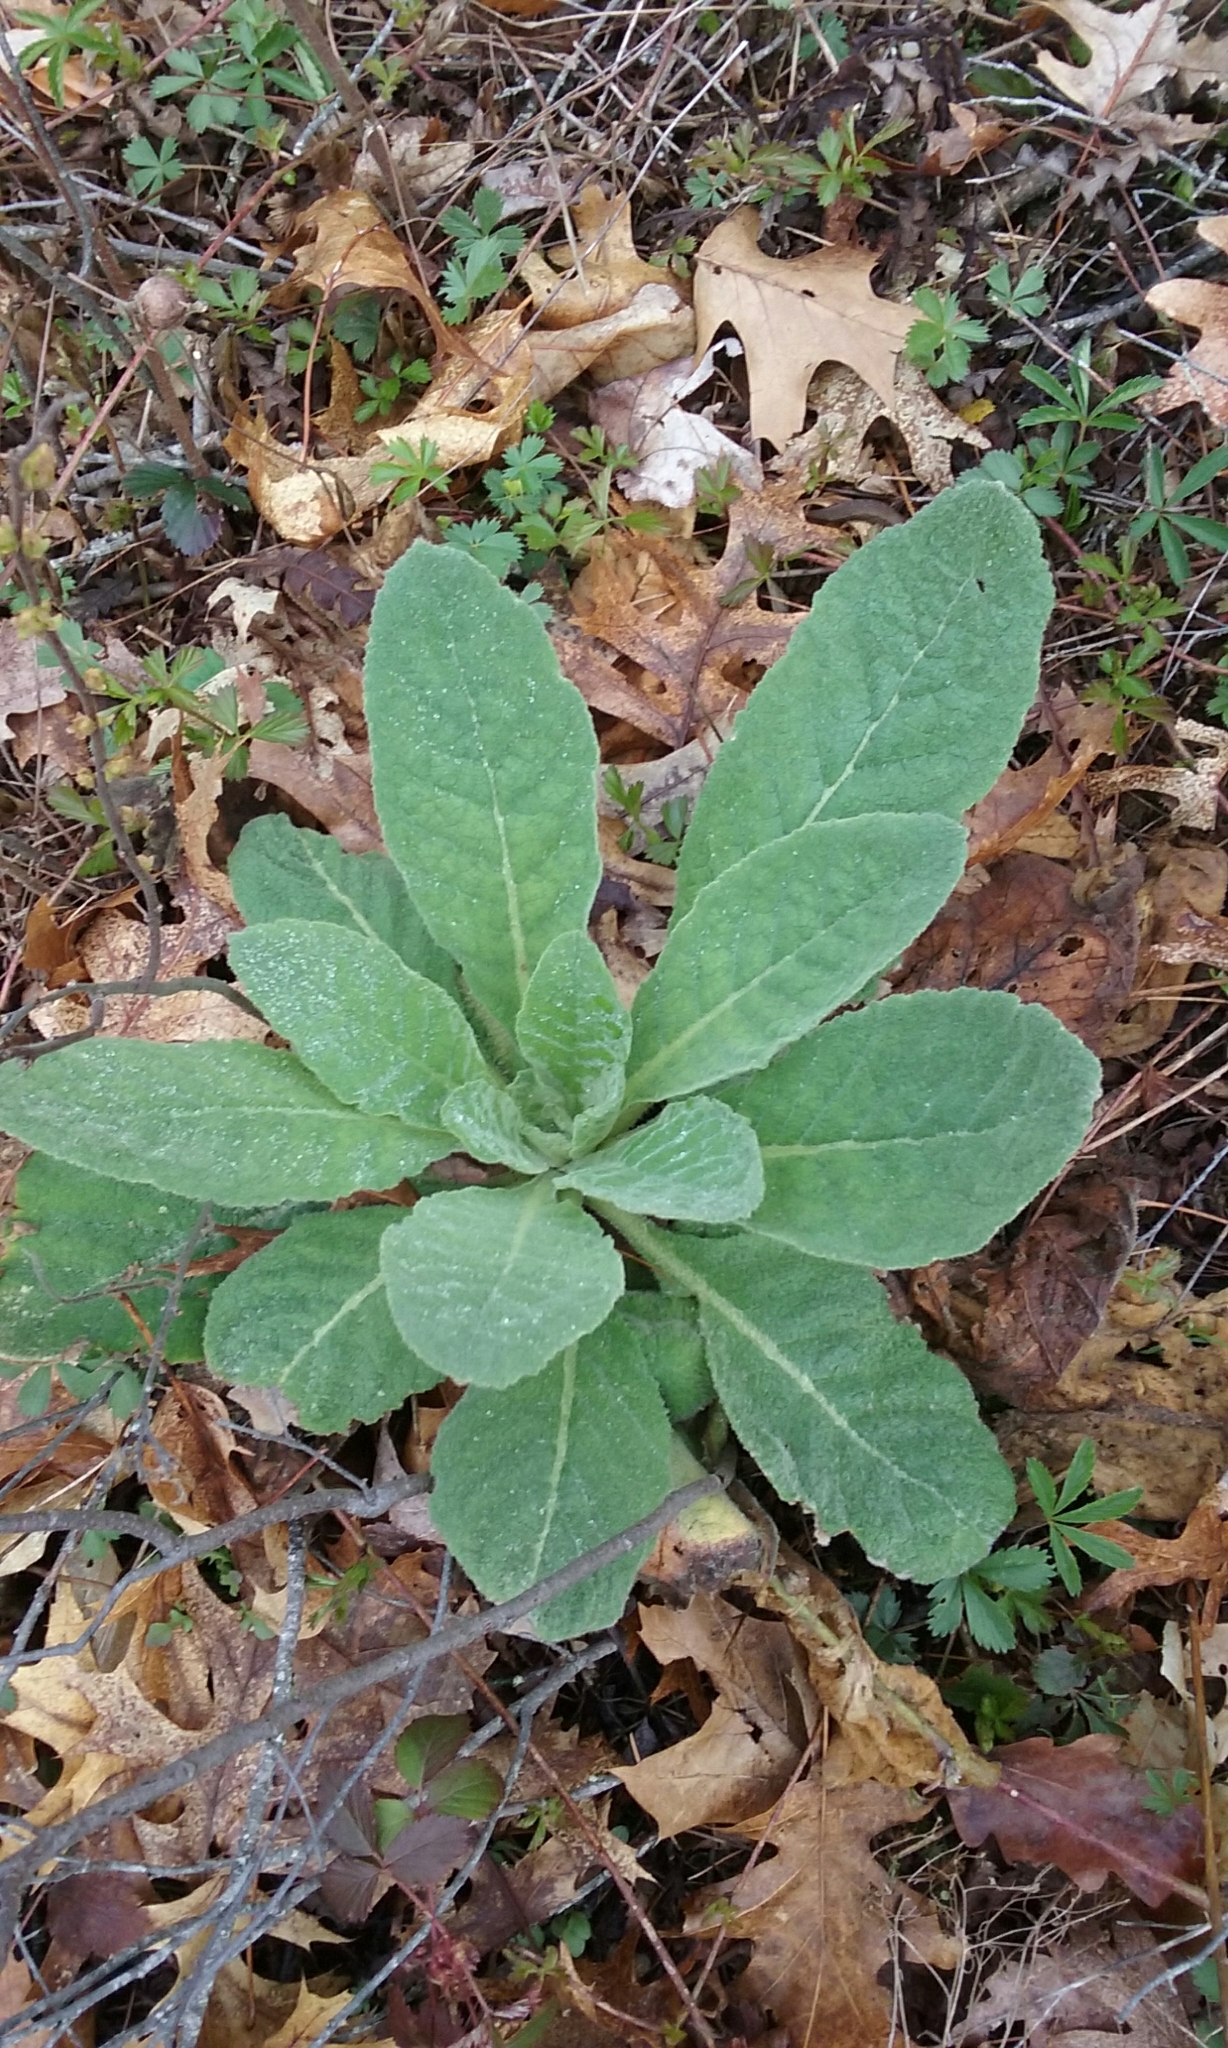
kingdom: Plantae
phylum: Tracheophyta
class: Magnoliopsida
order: Lamiales
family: Scrophulariaceae
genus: Verbascum
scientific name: Verbascum thapsus
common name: Common mullein
